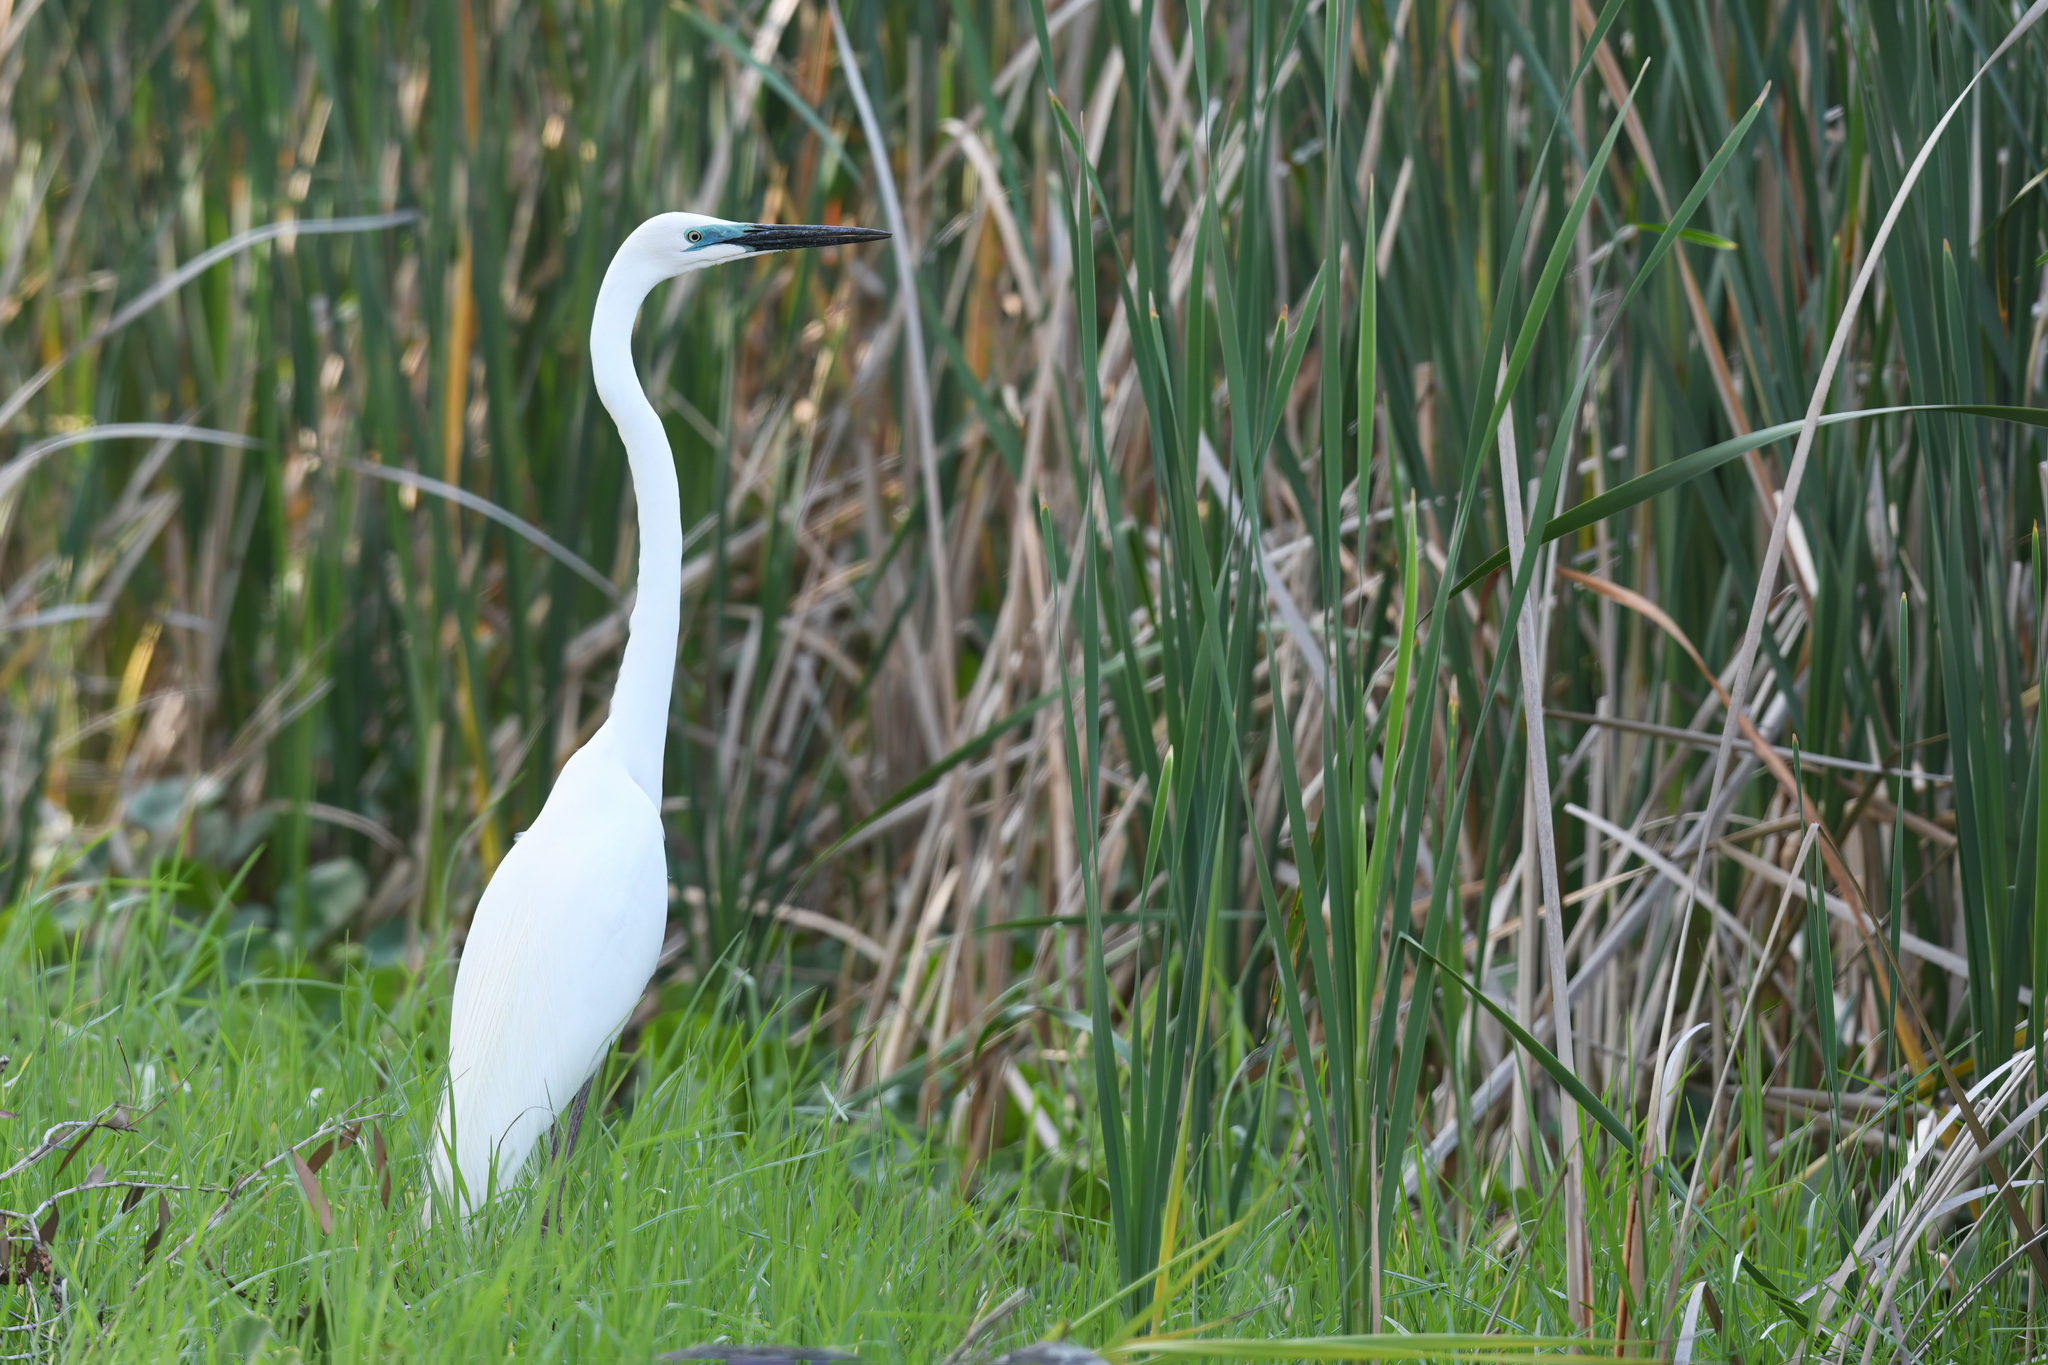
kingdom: Animalia
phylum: Chordata
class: Aves
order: Pelecaniformes
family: Ardeidae
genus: Ardea
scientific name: Ardea alba
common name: Great egret
